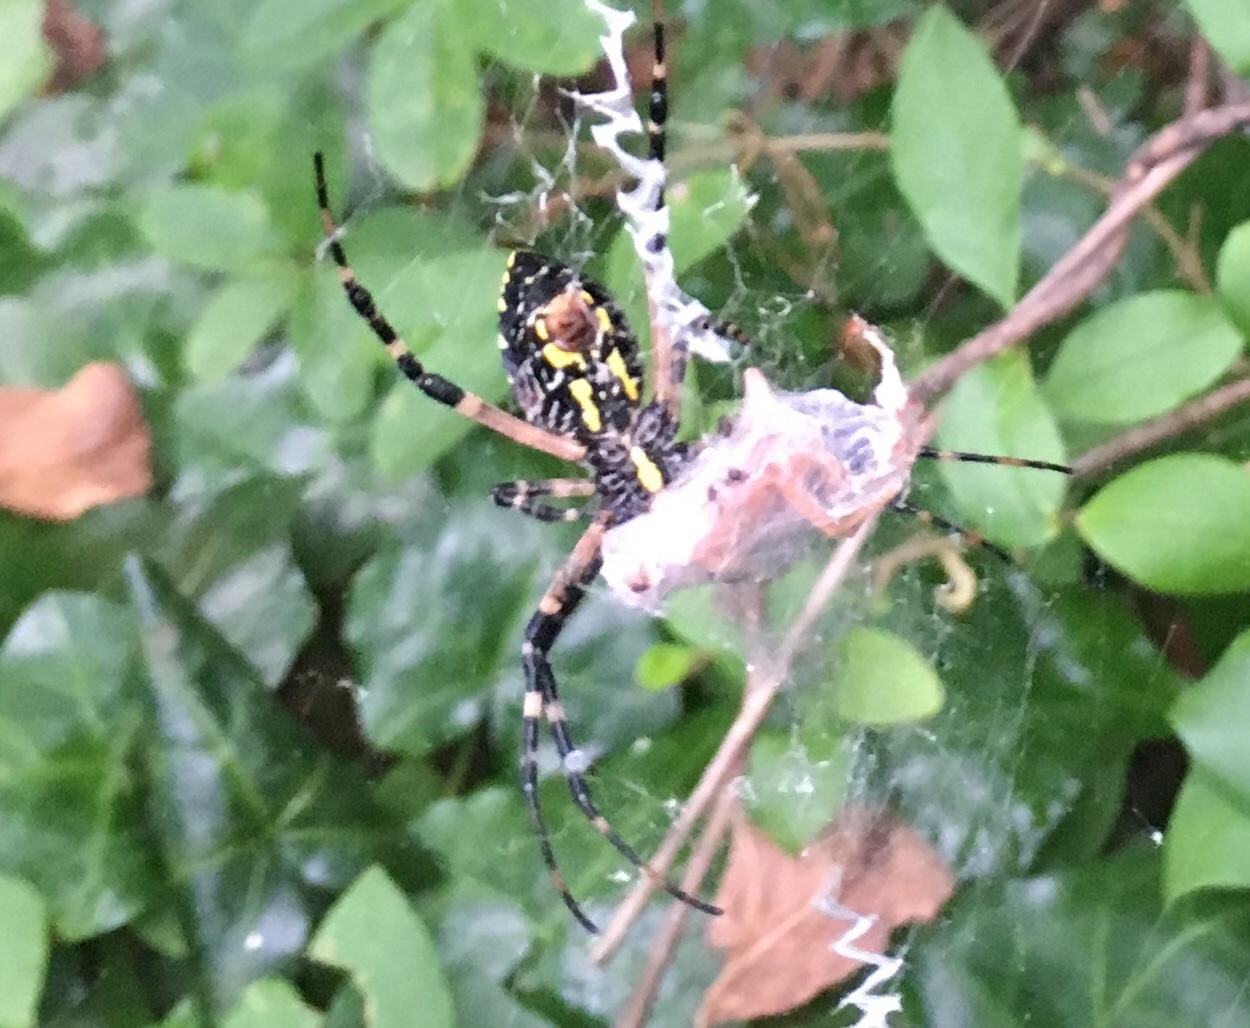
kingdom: Animalia
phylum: Arthropoda
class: Arachnida
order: Araneae
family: Araneidae
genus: Argiope
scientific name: Argiope aurantia
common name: Orb weavers
